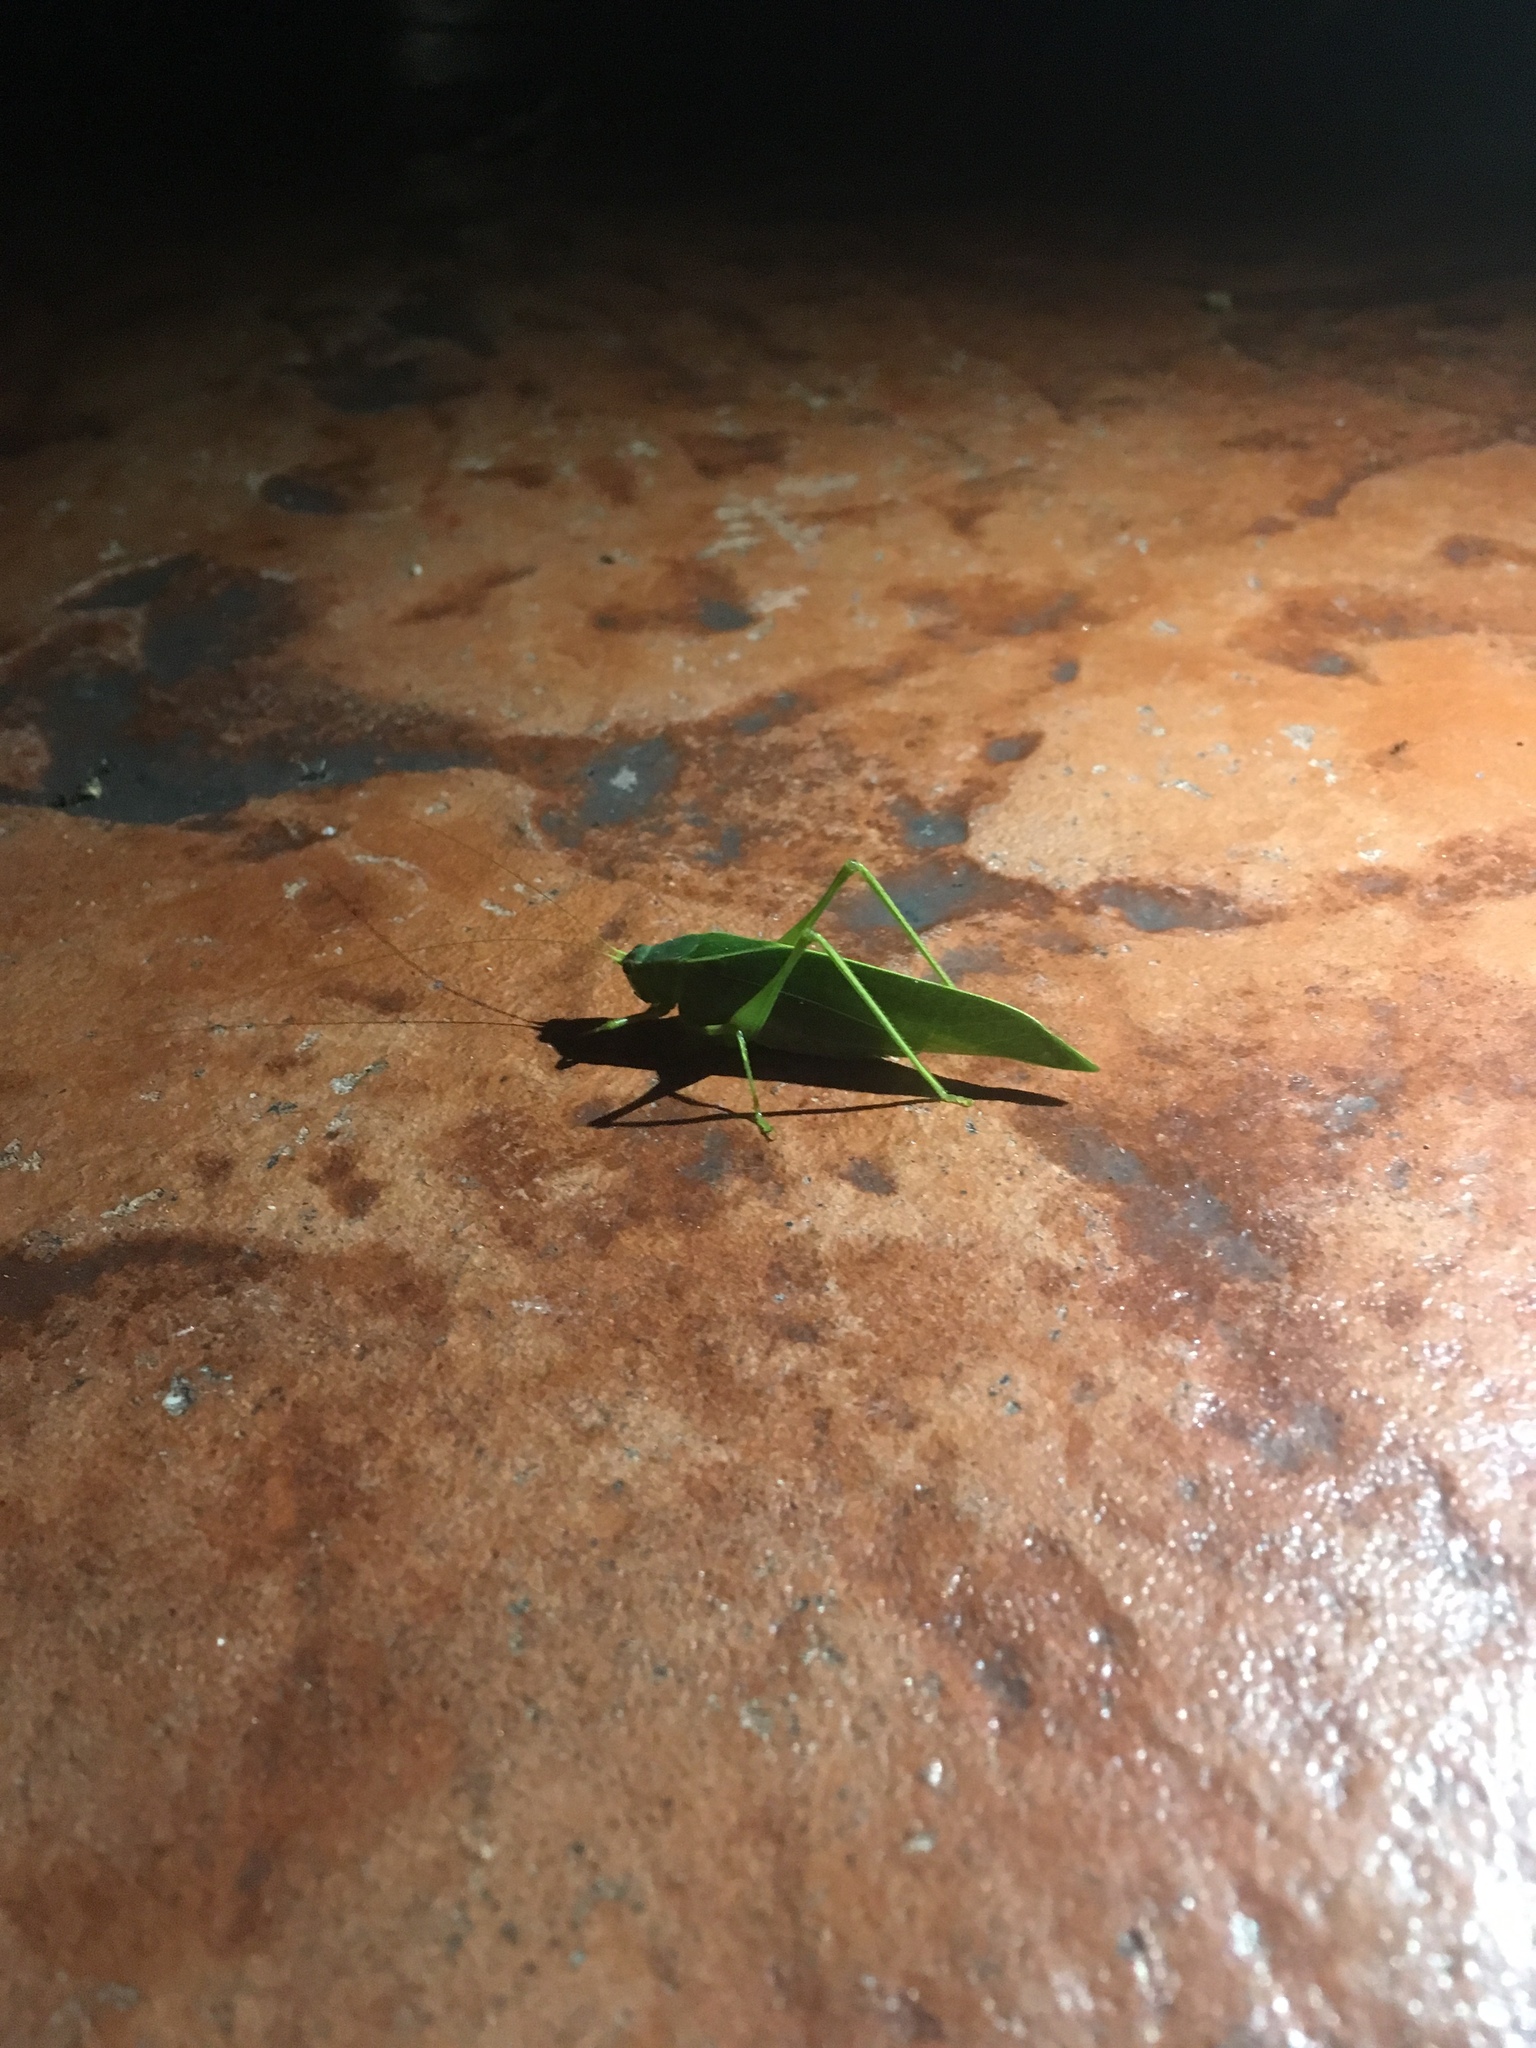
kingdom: Animalia
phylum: Arthropoda
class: Insecta
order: Orthoptera
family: Tettigoniidae
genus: Turpilia
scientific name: Turpilia rostrata
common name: Narrow-beaked katydid
